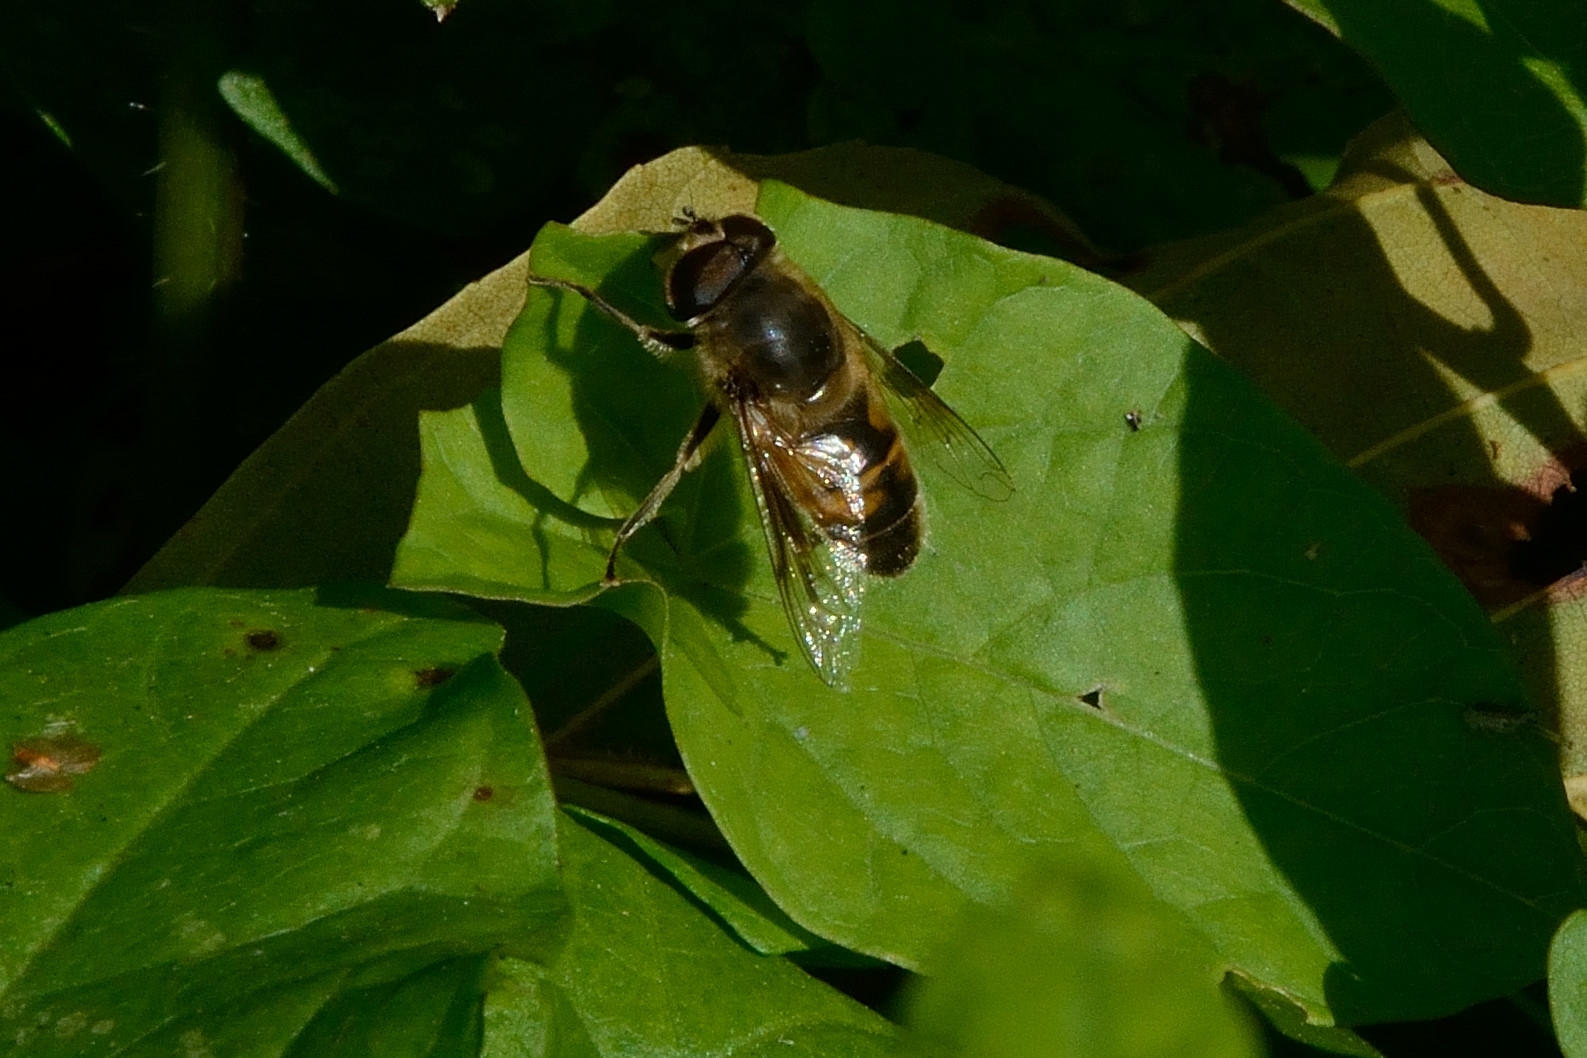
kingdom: Animalia
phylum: Arthropoda
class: Insecta
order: Diptera
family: Syrphidae
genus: Eristalis
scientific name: Eristalis tenax
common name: Drone fly
